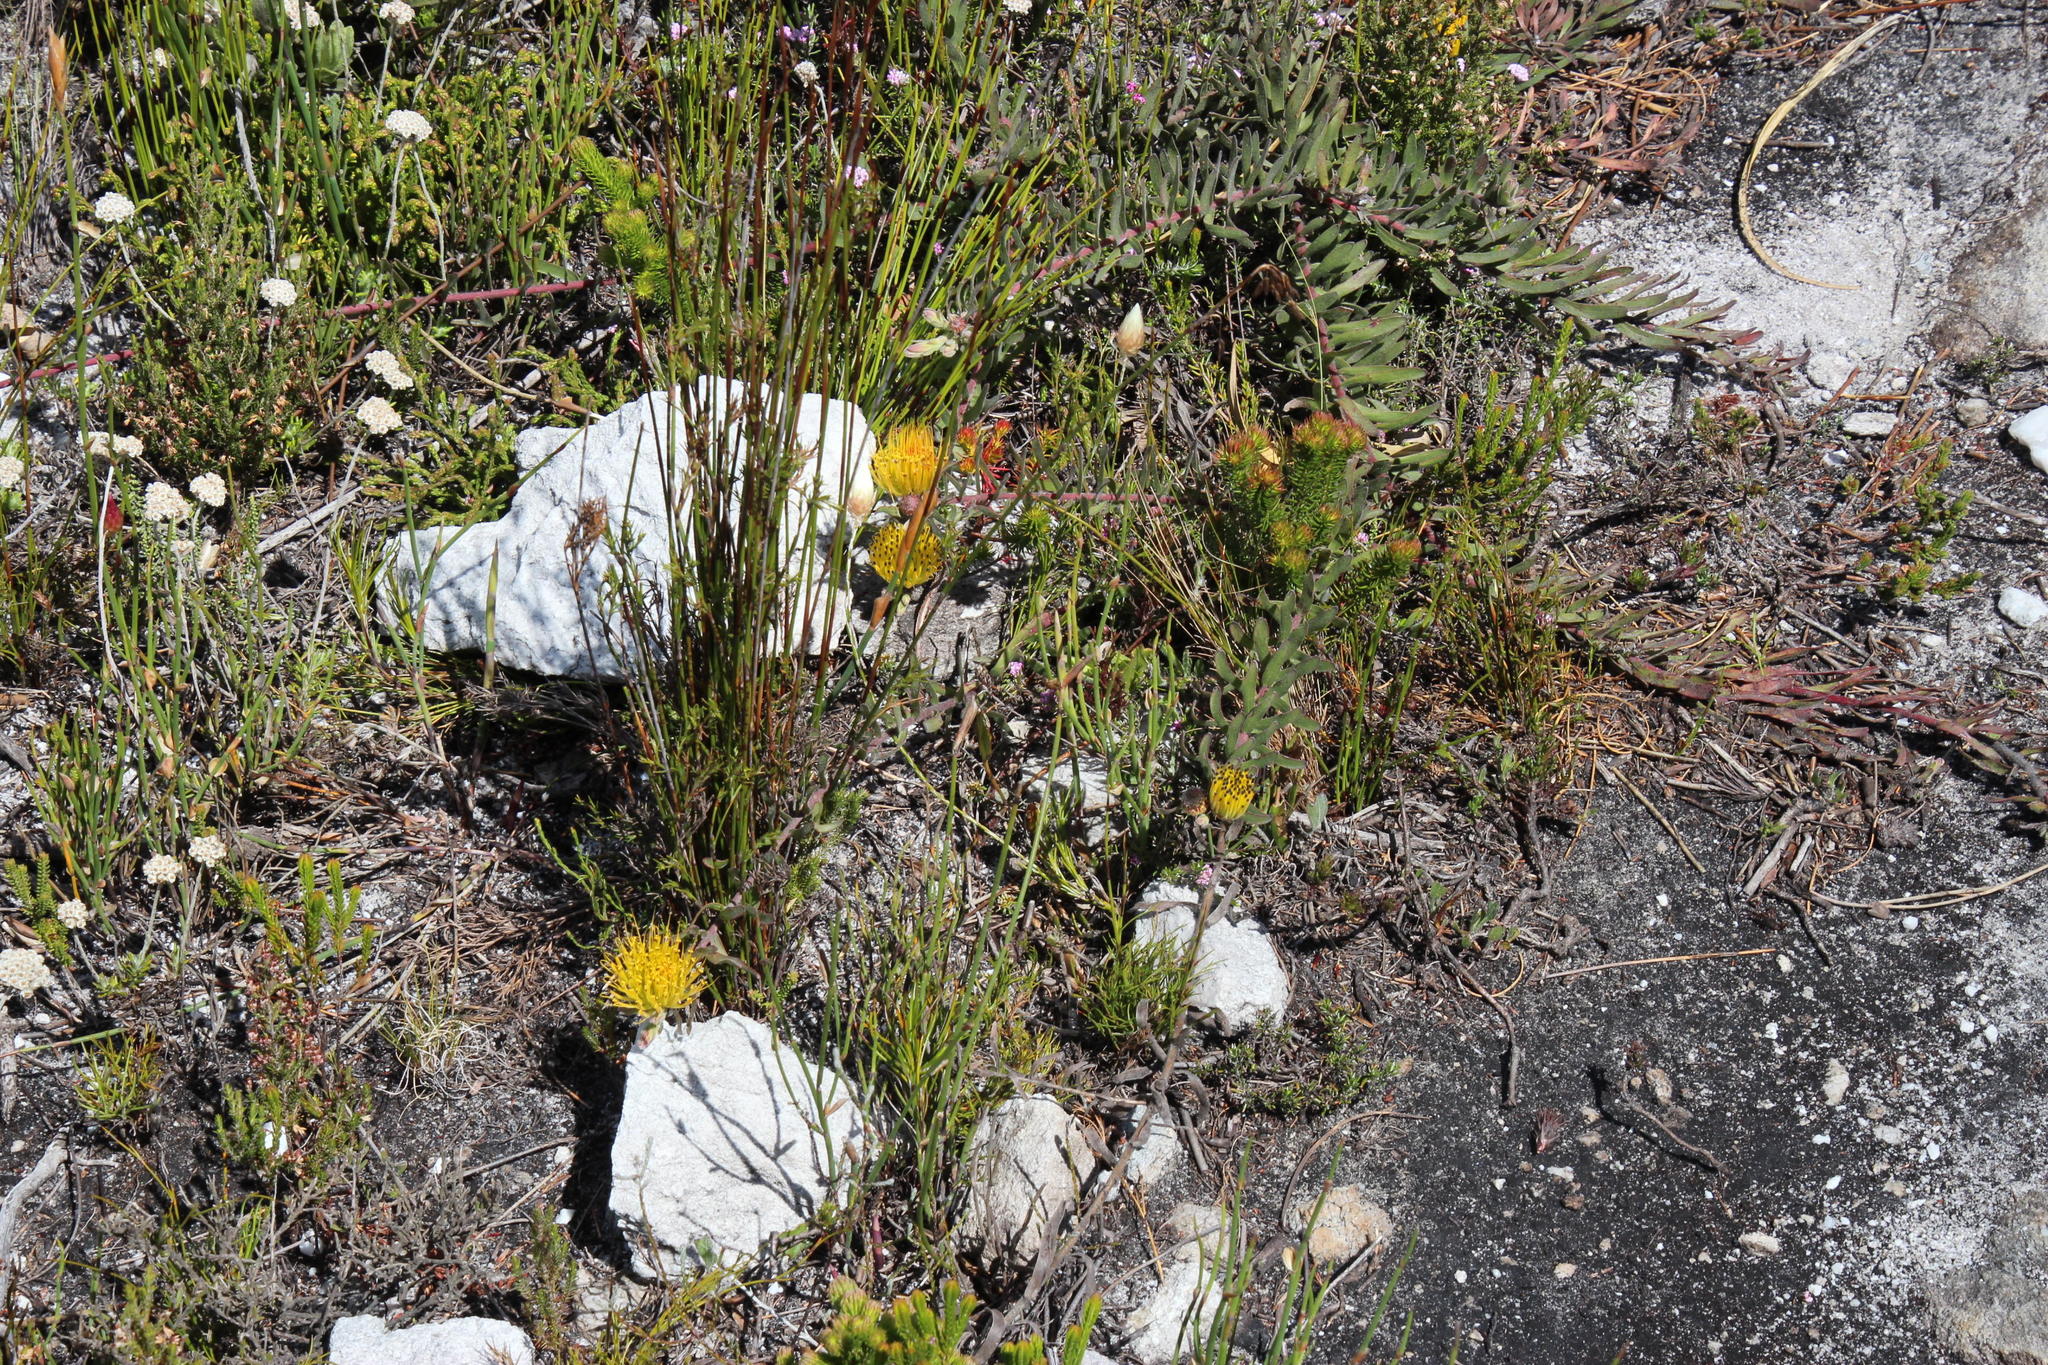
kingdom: Plantae
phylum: Tracheophyta
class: Magnoliopsida
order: Proteales
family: Proteaceae
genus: Leucospermum
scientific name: Leucospermum gracile
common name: Hermanus pincushion
